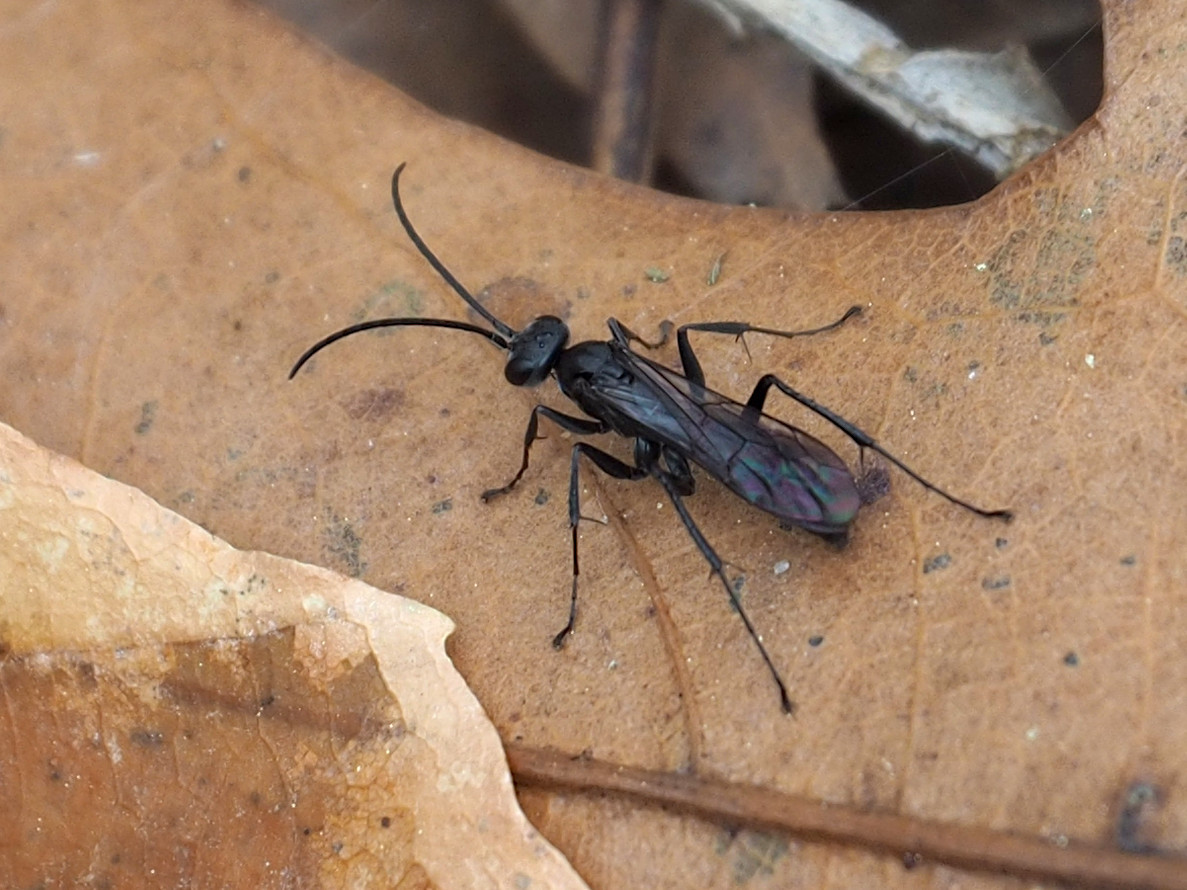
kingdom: Animalia
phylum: Arthropoda
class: Insecta
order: Hymenoptera
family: Pompilidae
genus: Priocnemis
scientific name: Priocnemis minorata
